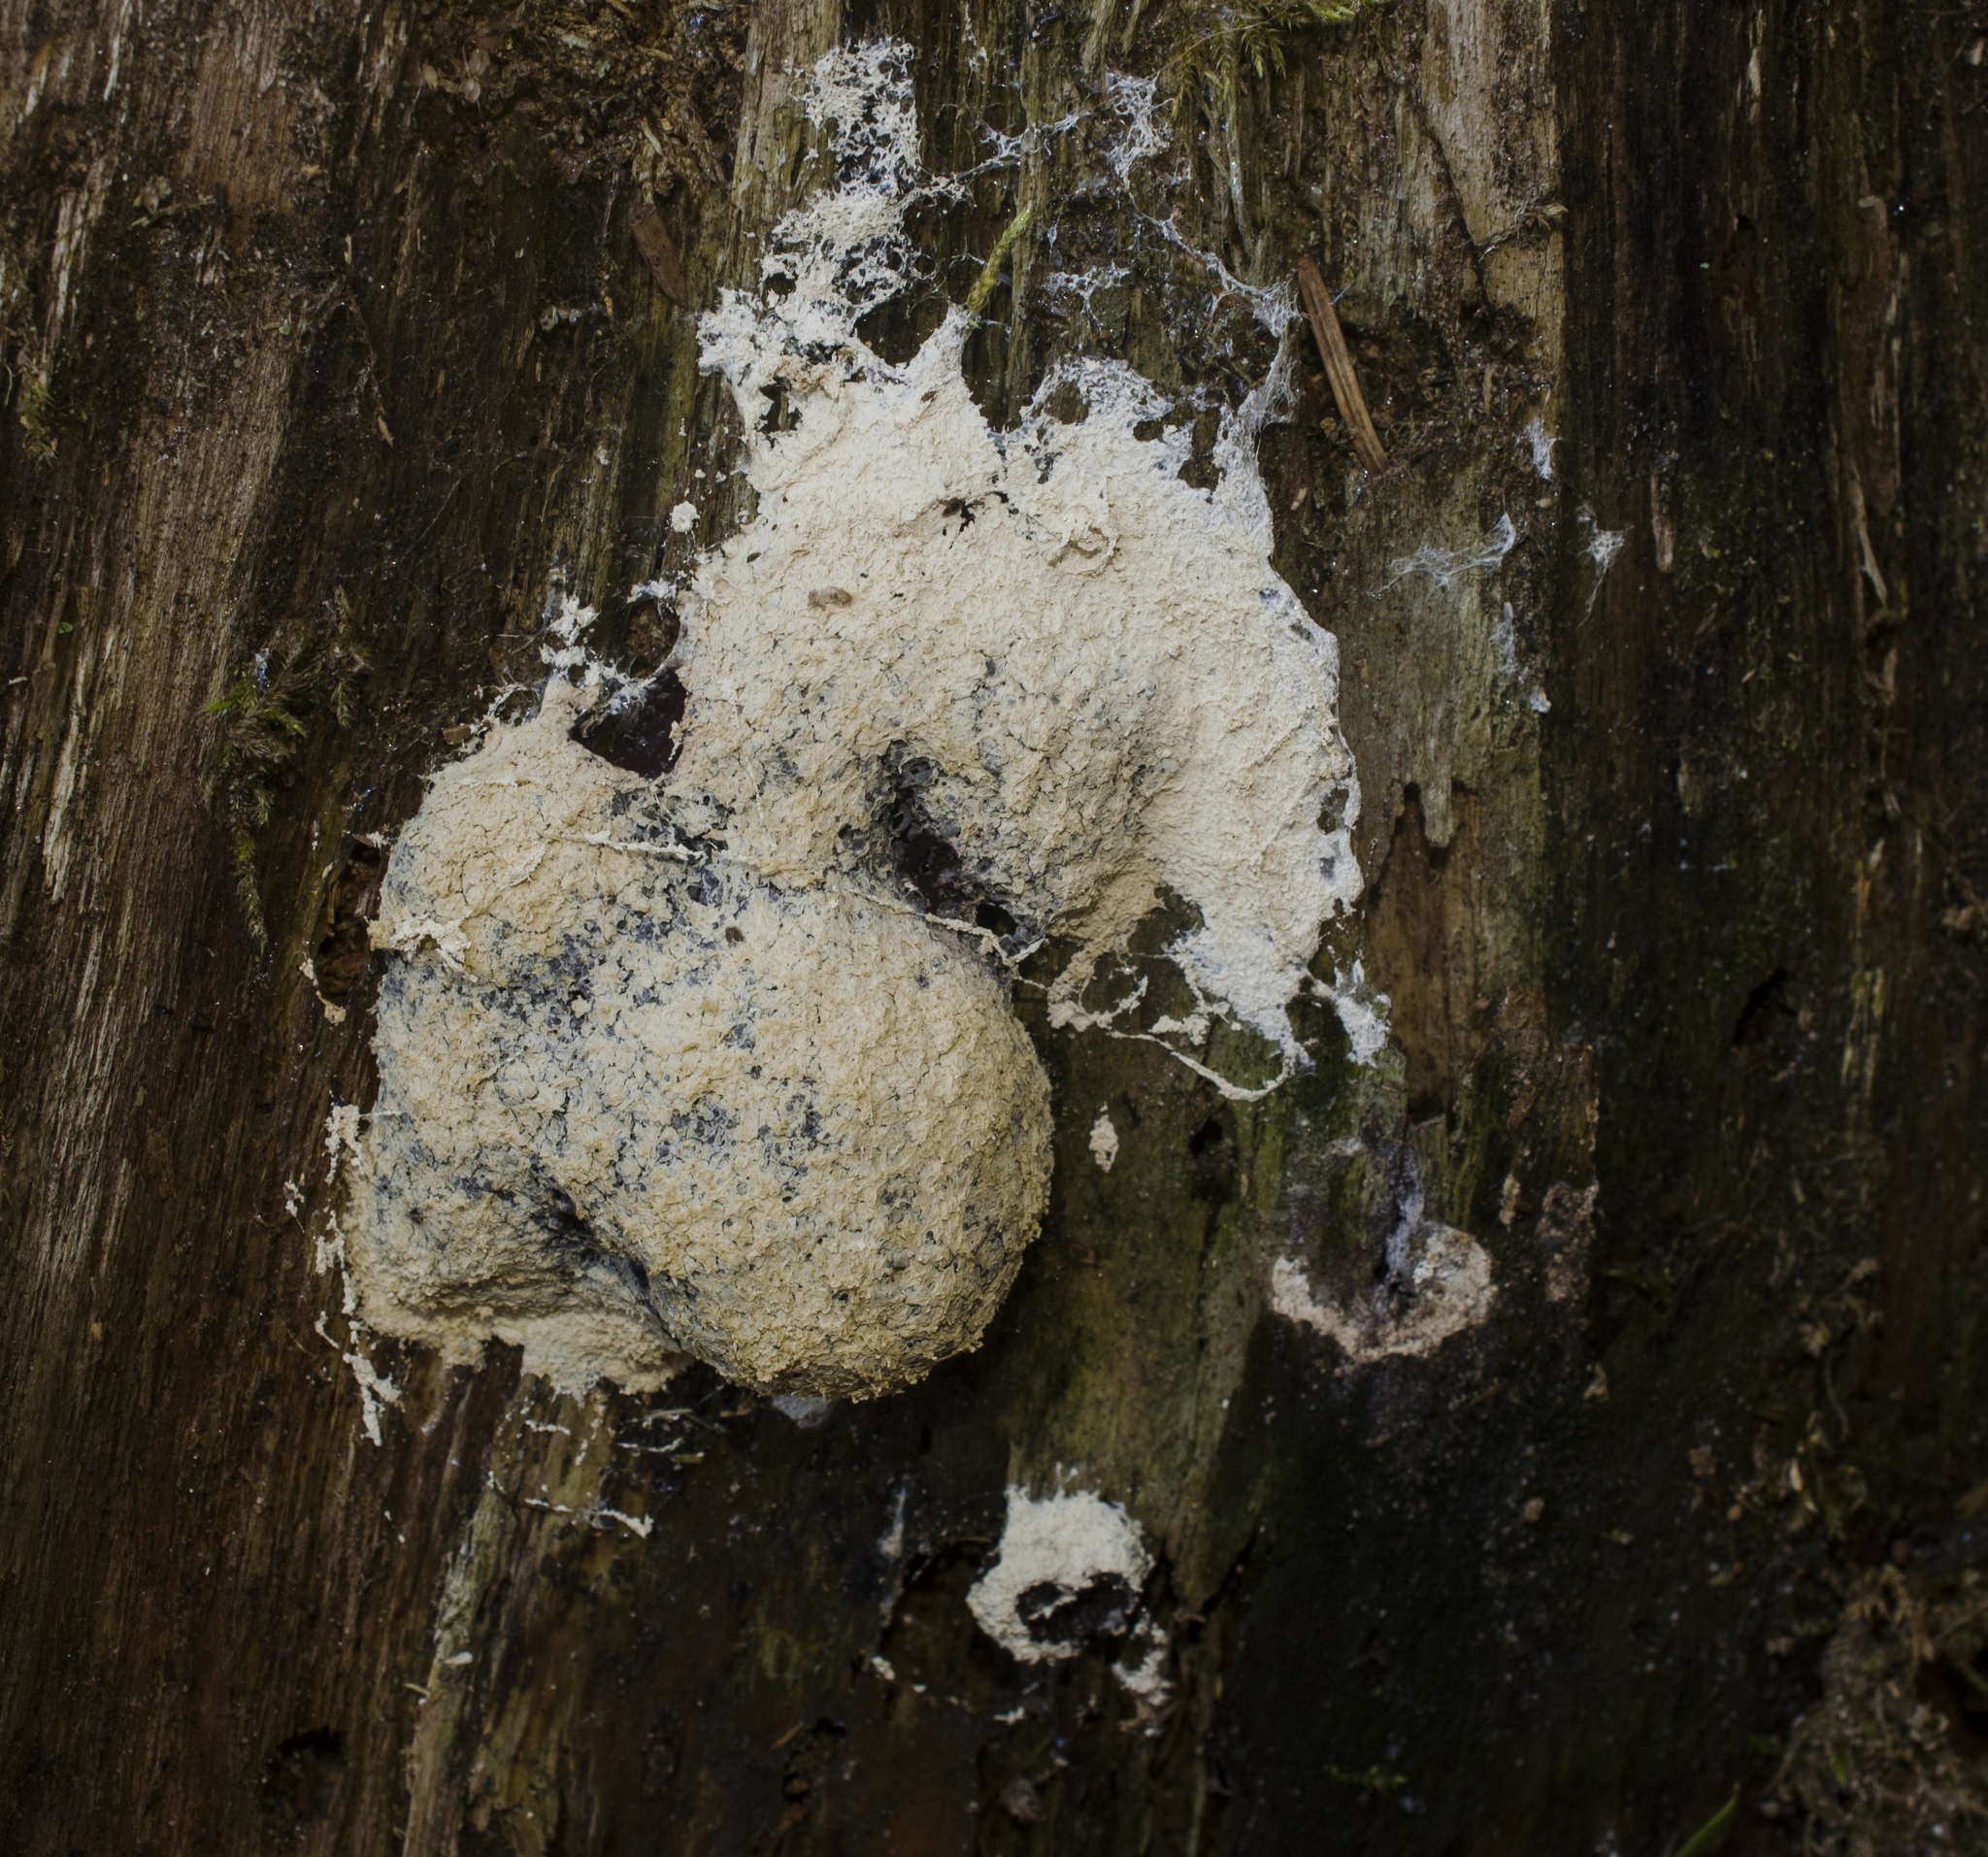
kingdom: Protozoa
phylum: Mycetozoa
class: Myxomycetes
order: Physarales
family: Physaraceae
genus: Fuligo
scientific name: Fuligo septica
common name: Dog vomit slime mold
